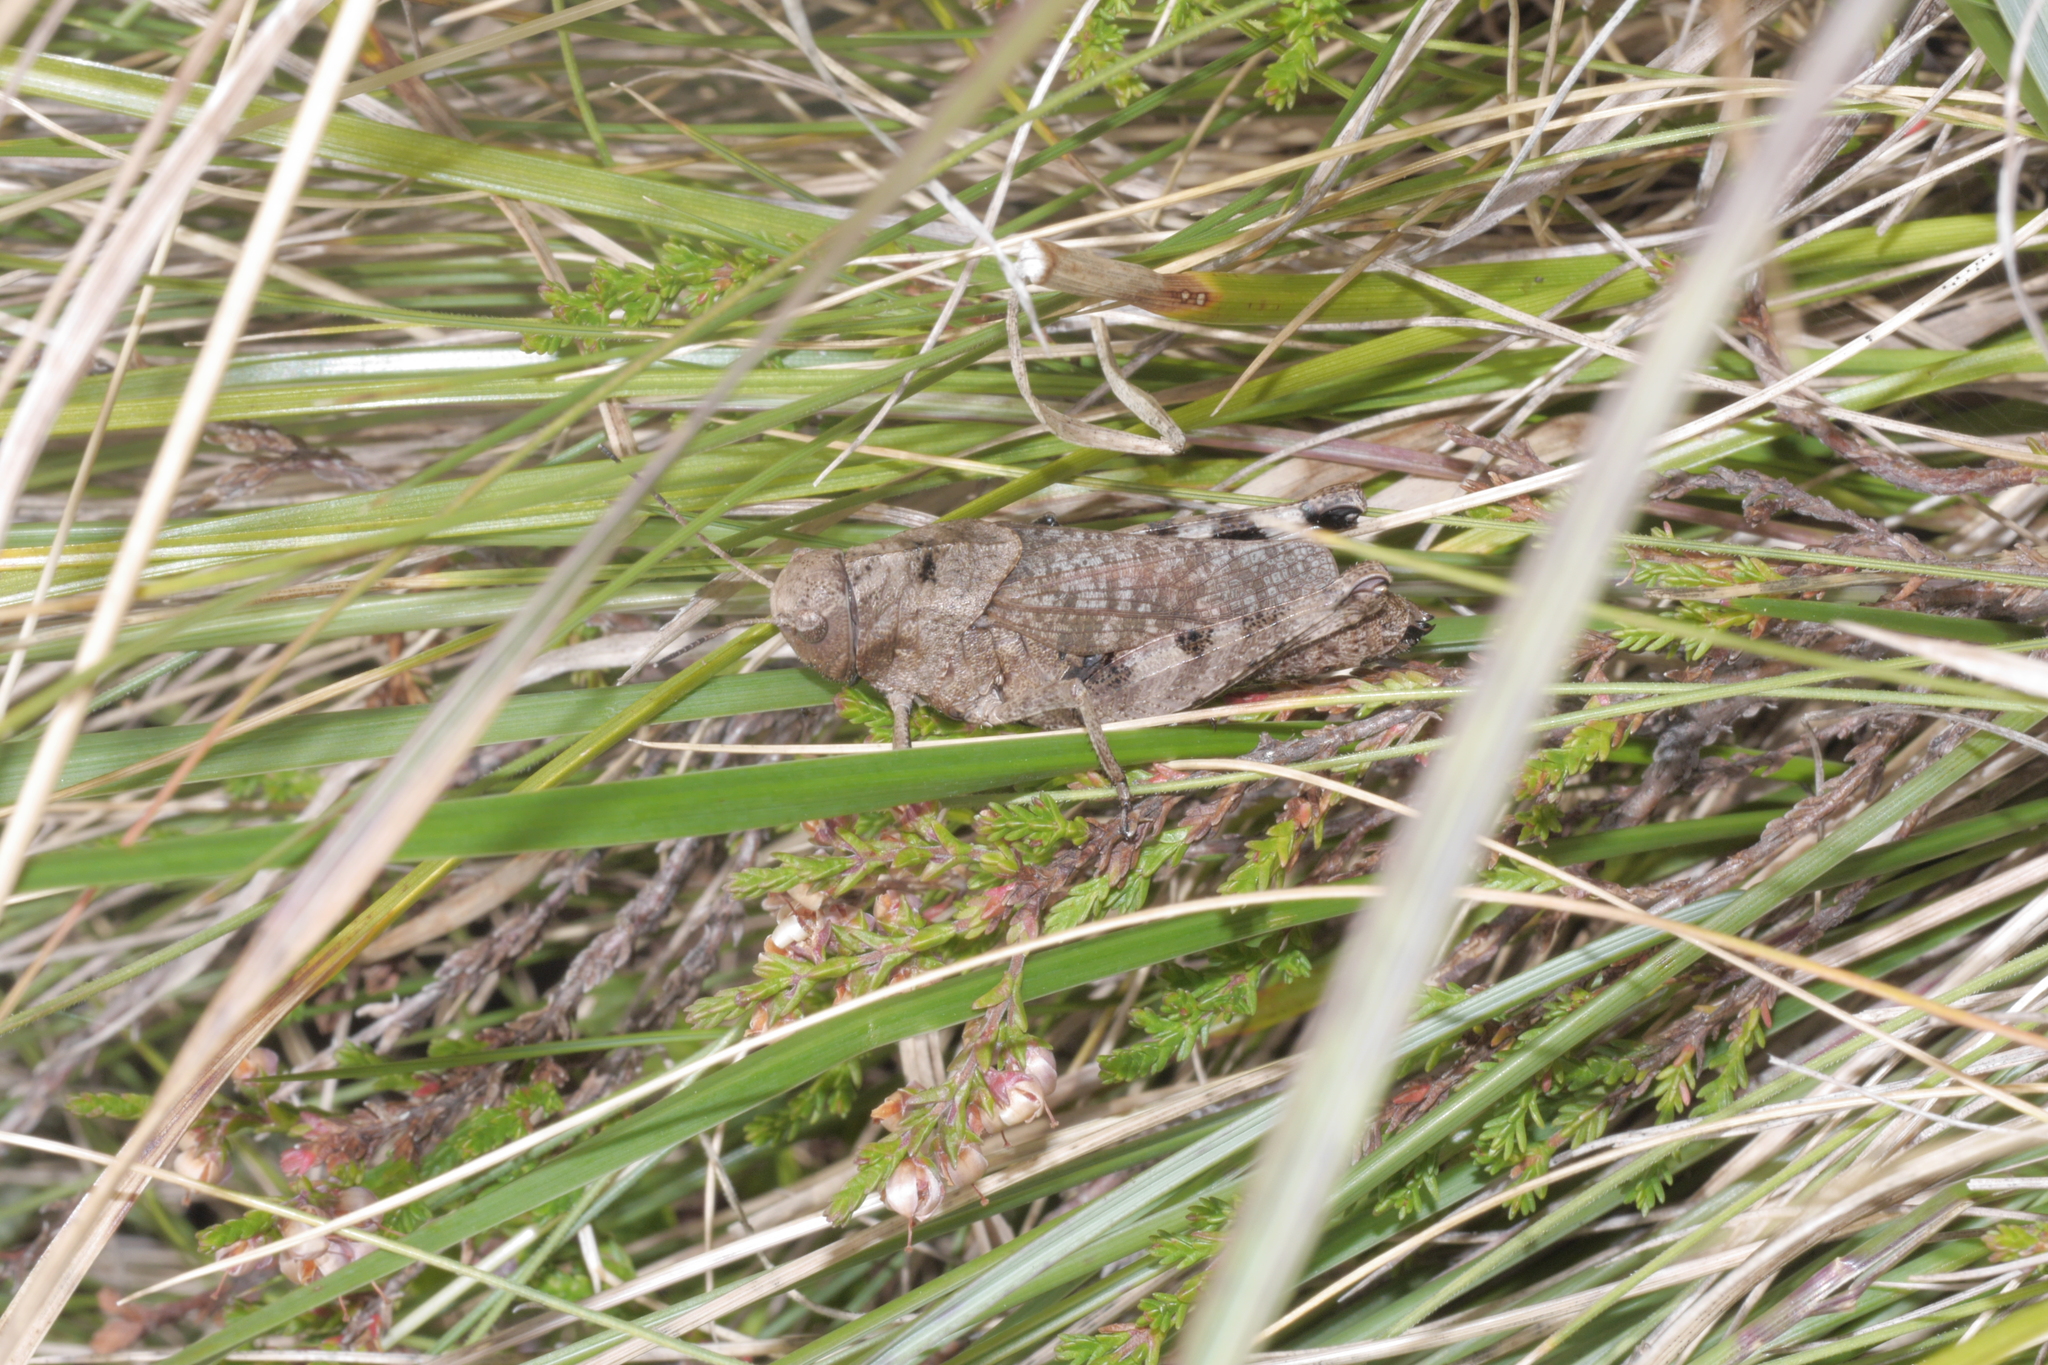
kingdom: Animalia
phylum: Arthropoda
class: Insecta
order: Orthoptera
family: Acrididae
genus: Psophus
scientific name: Psophus stridulus
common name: Rattle grasshopper
